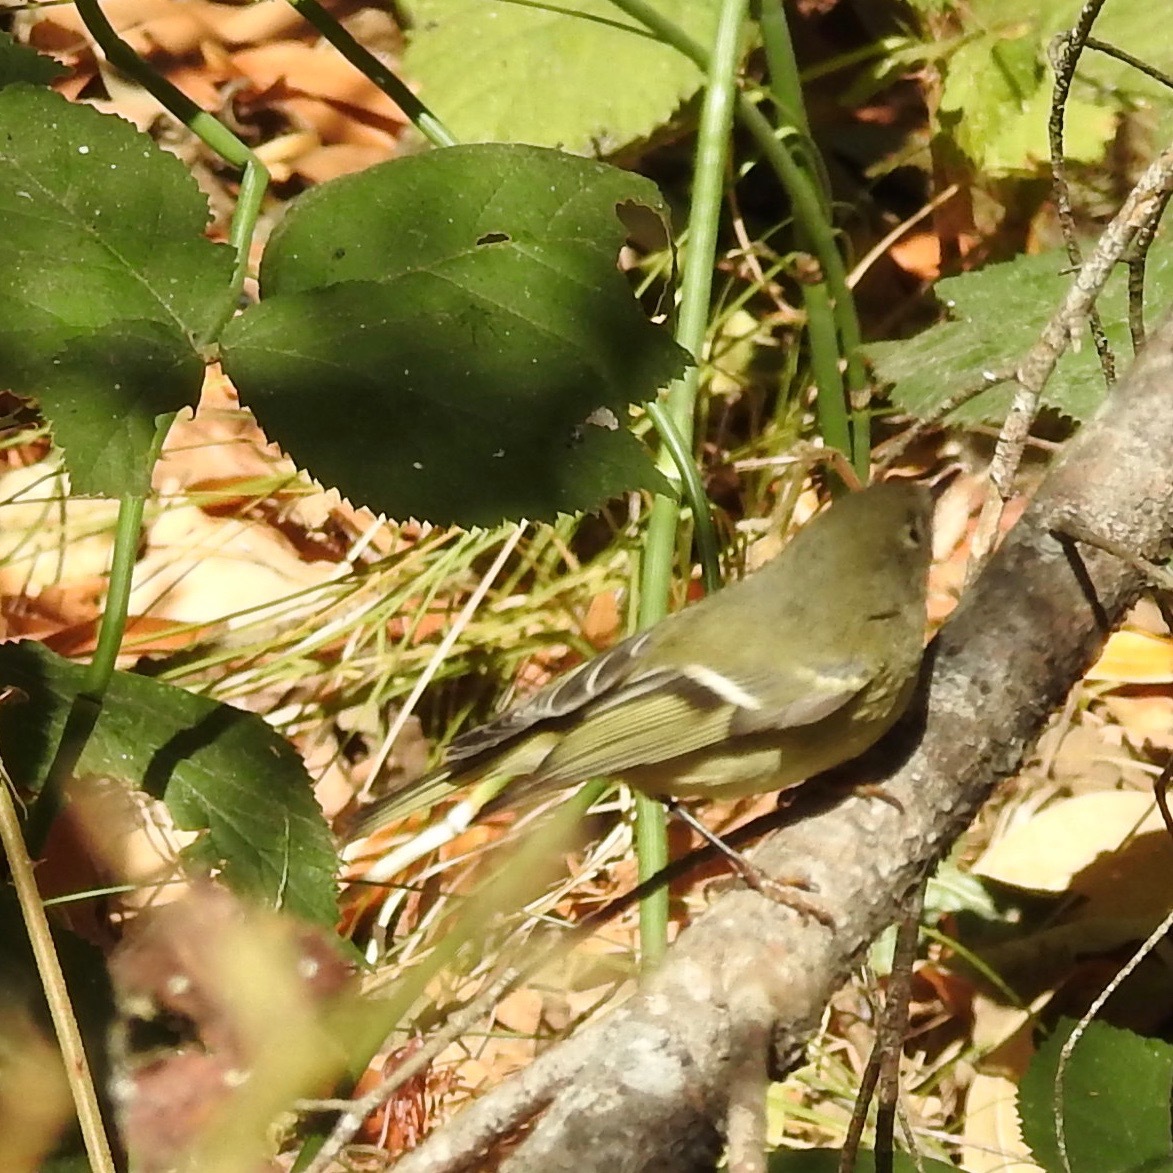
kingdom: Animalia
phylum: Chordata
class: Aves
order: Passeriformes
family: Regulidae
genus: Regulus
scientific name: Regulus calendula
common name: Ruby-crowned kinglet
